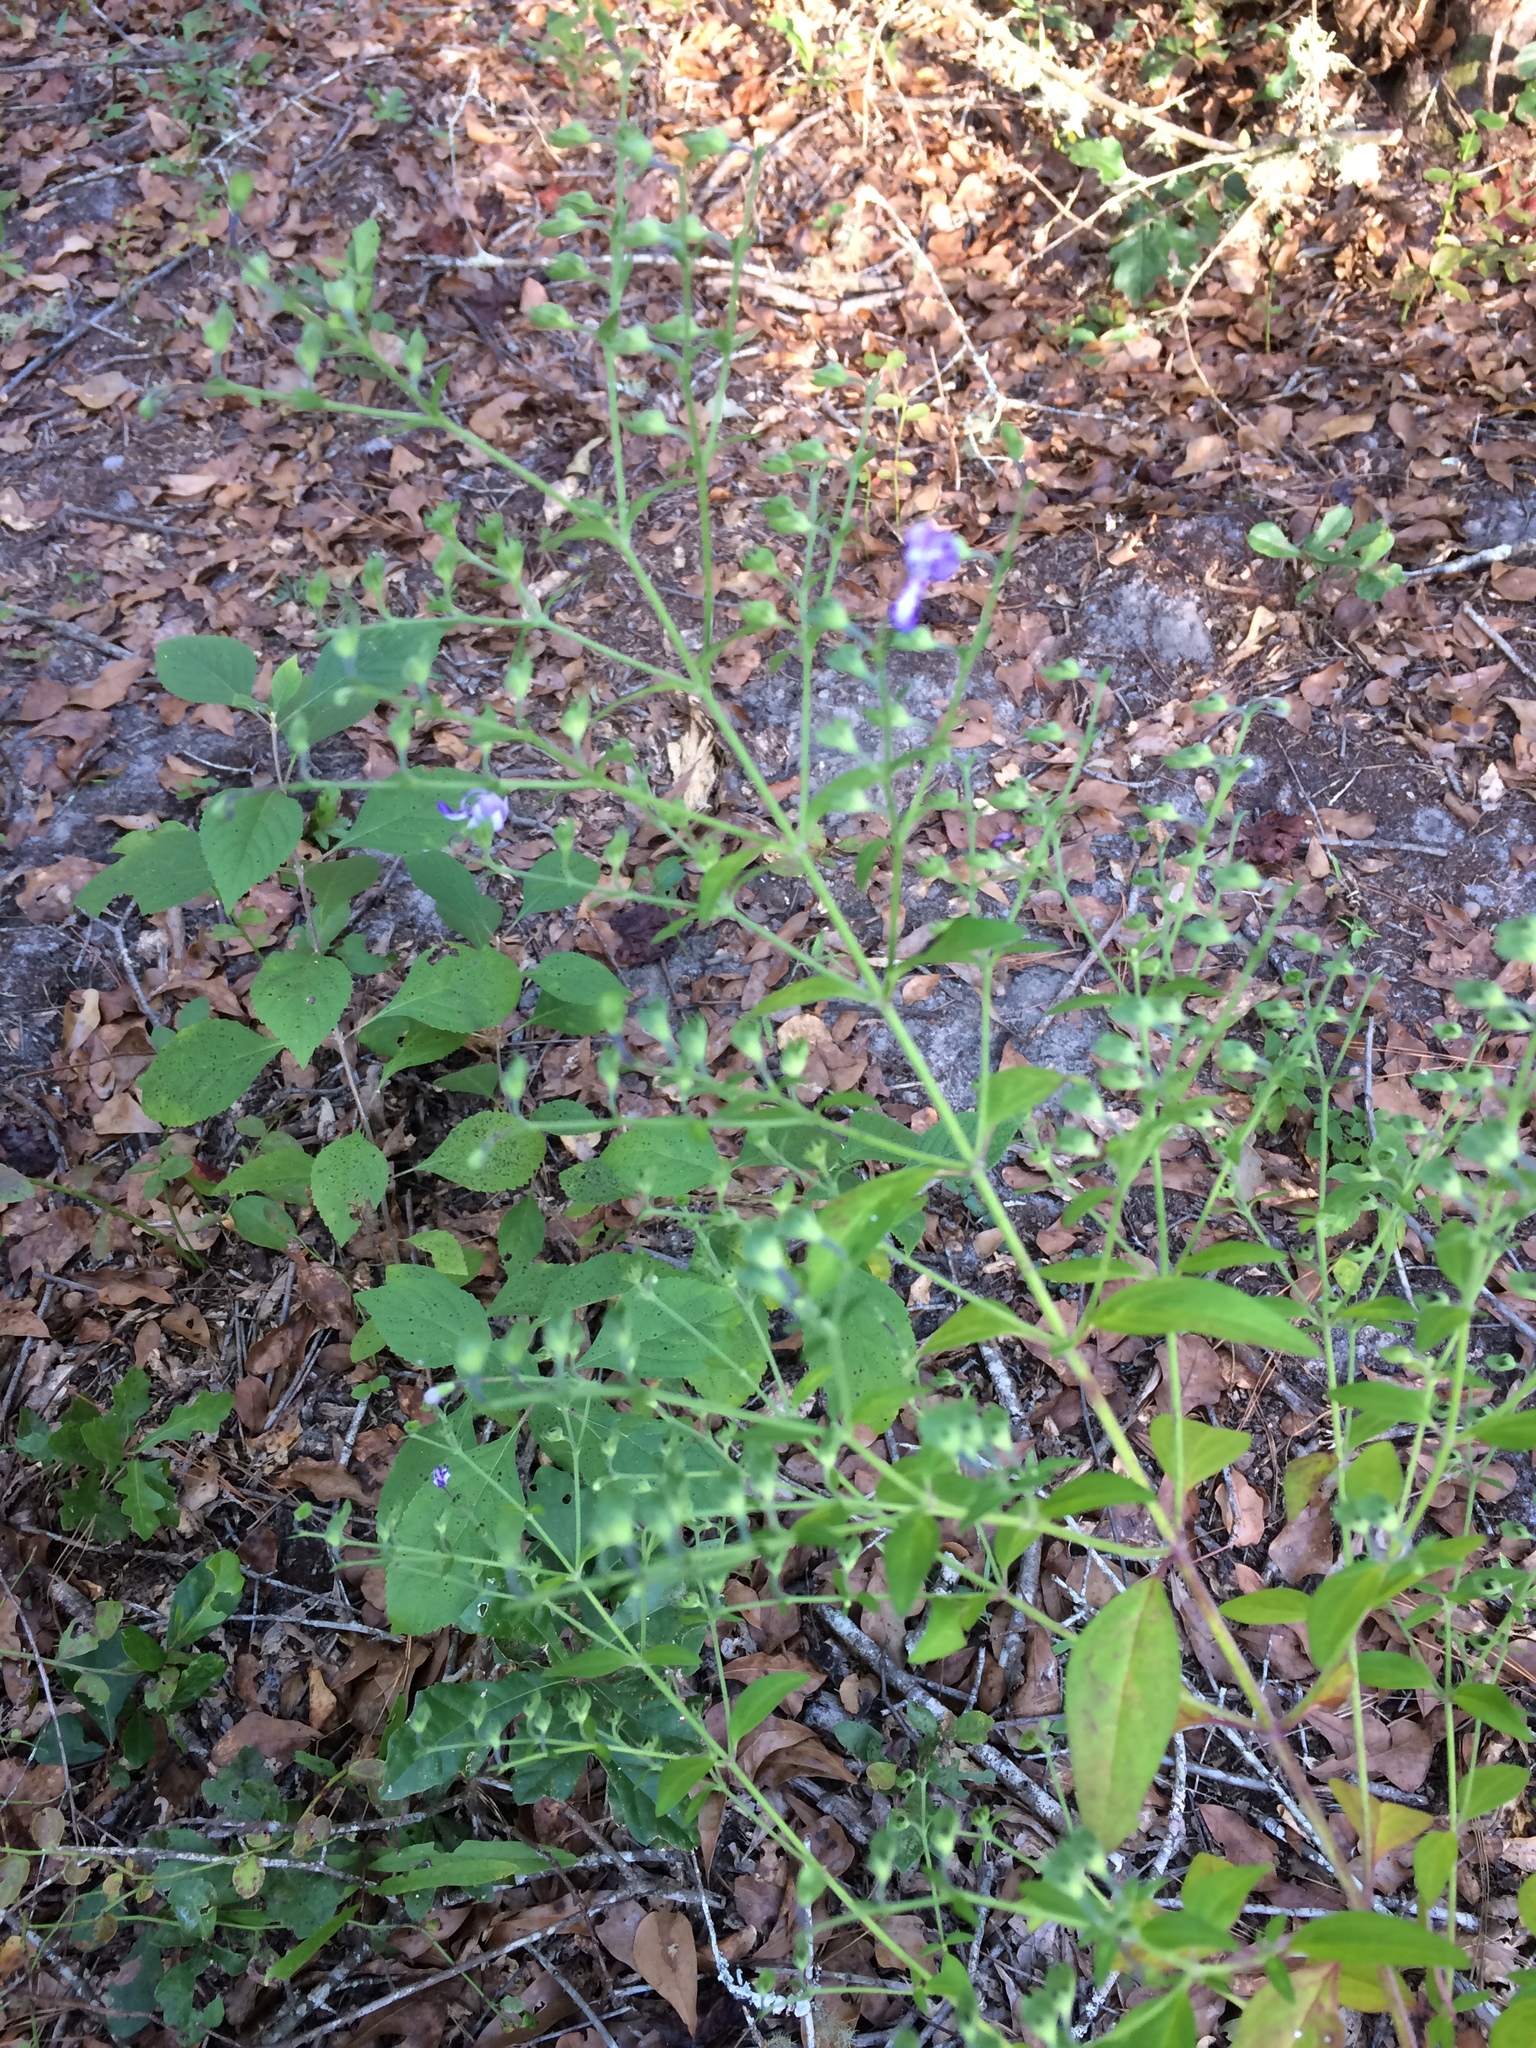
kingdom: Plantae
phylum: Tracheophyta
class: Magnoliopsida
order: Lamiales
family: Lamiaceae
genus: Trichostema
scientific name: Trichostema dichotomum
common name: Bastard pennyroyal
